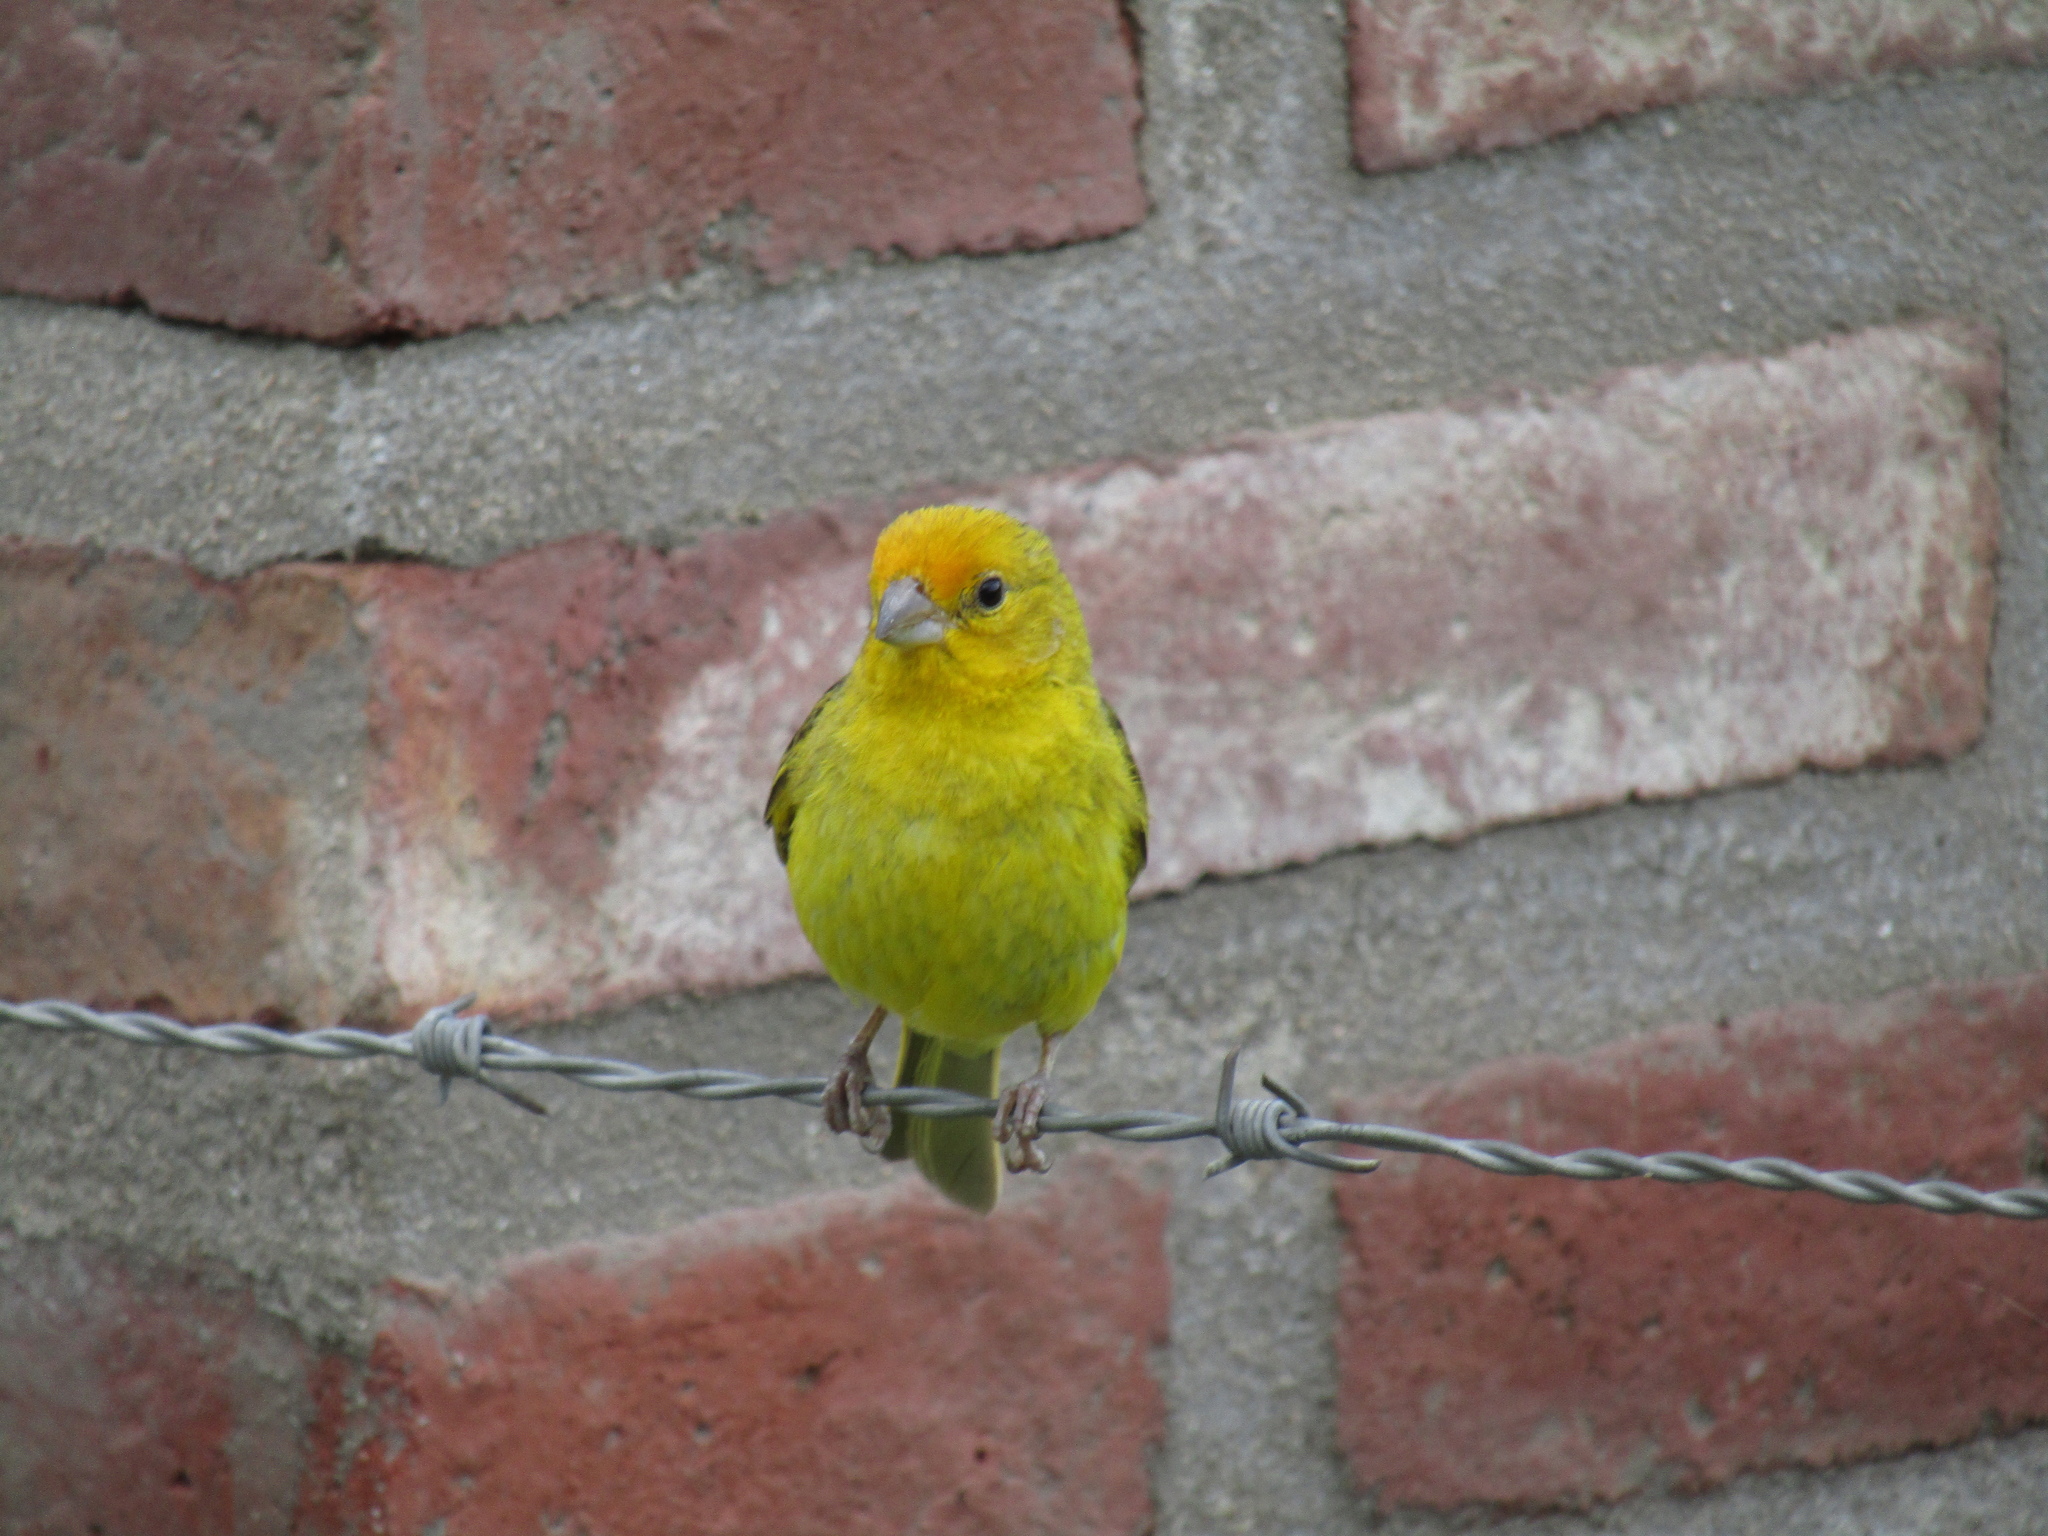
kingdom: Animalia
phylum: Chordata
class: Aves
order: Passeriformes
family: Thraupidae
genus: Sicalis
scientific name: Sicalis flaveola
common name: Saffron finch
